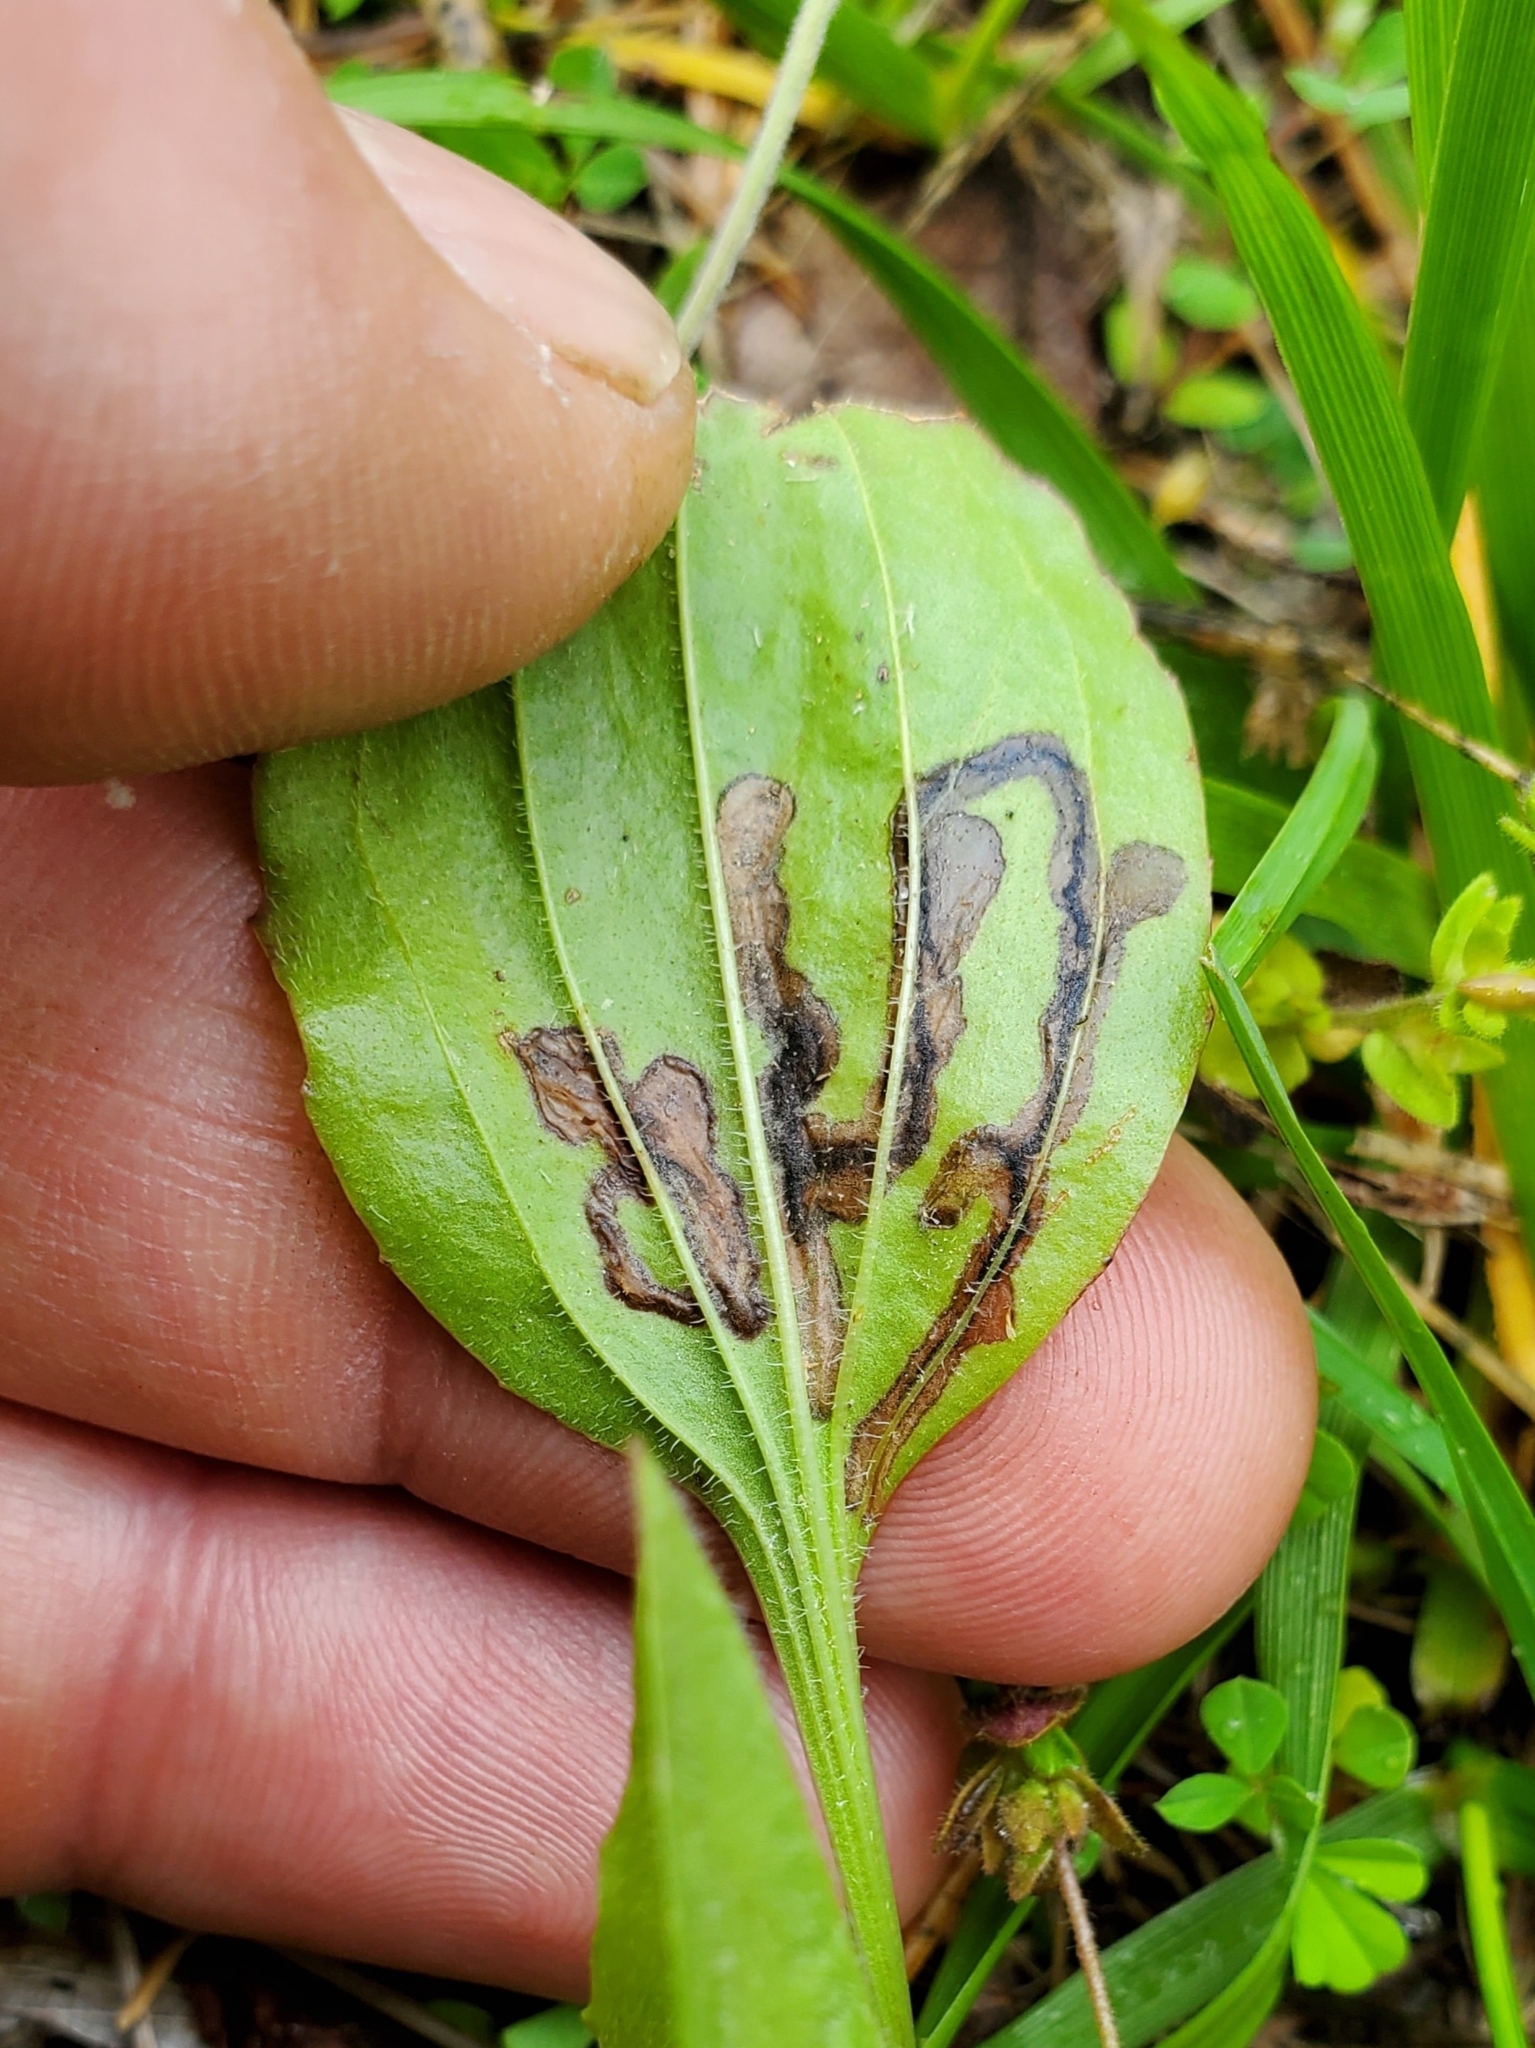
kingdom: Animalia
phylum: Arthropoda
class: Insecta
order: Coleoptera
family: Chrysomelidae
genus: Dibolia
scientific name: Dibolia borealis
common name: Northern plantain flea beetle
